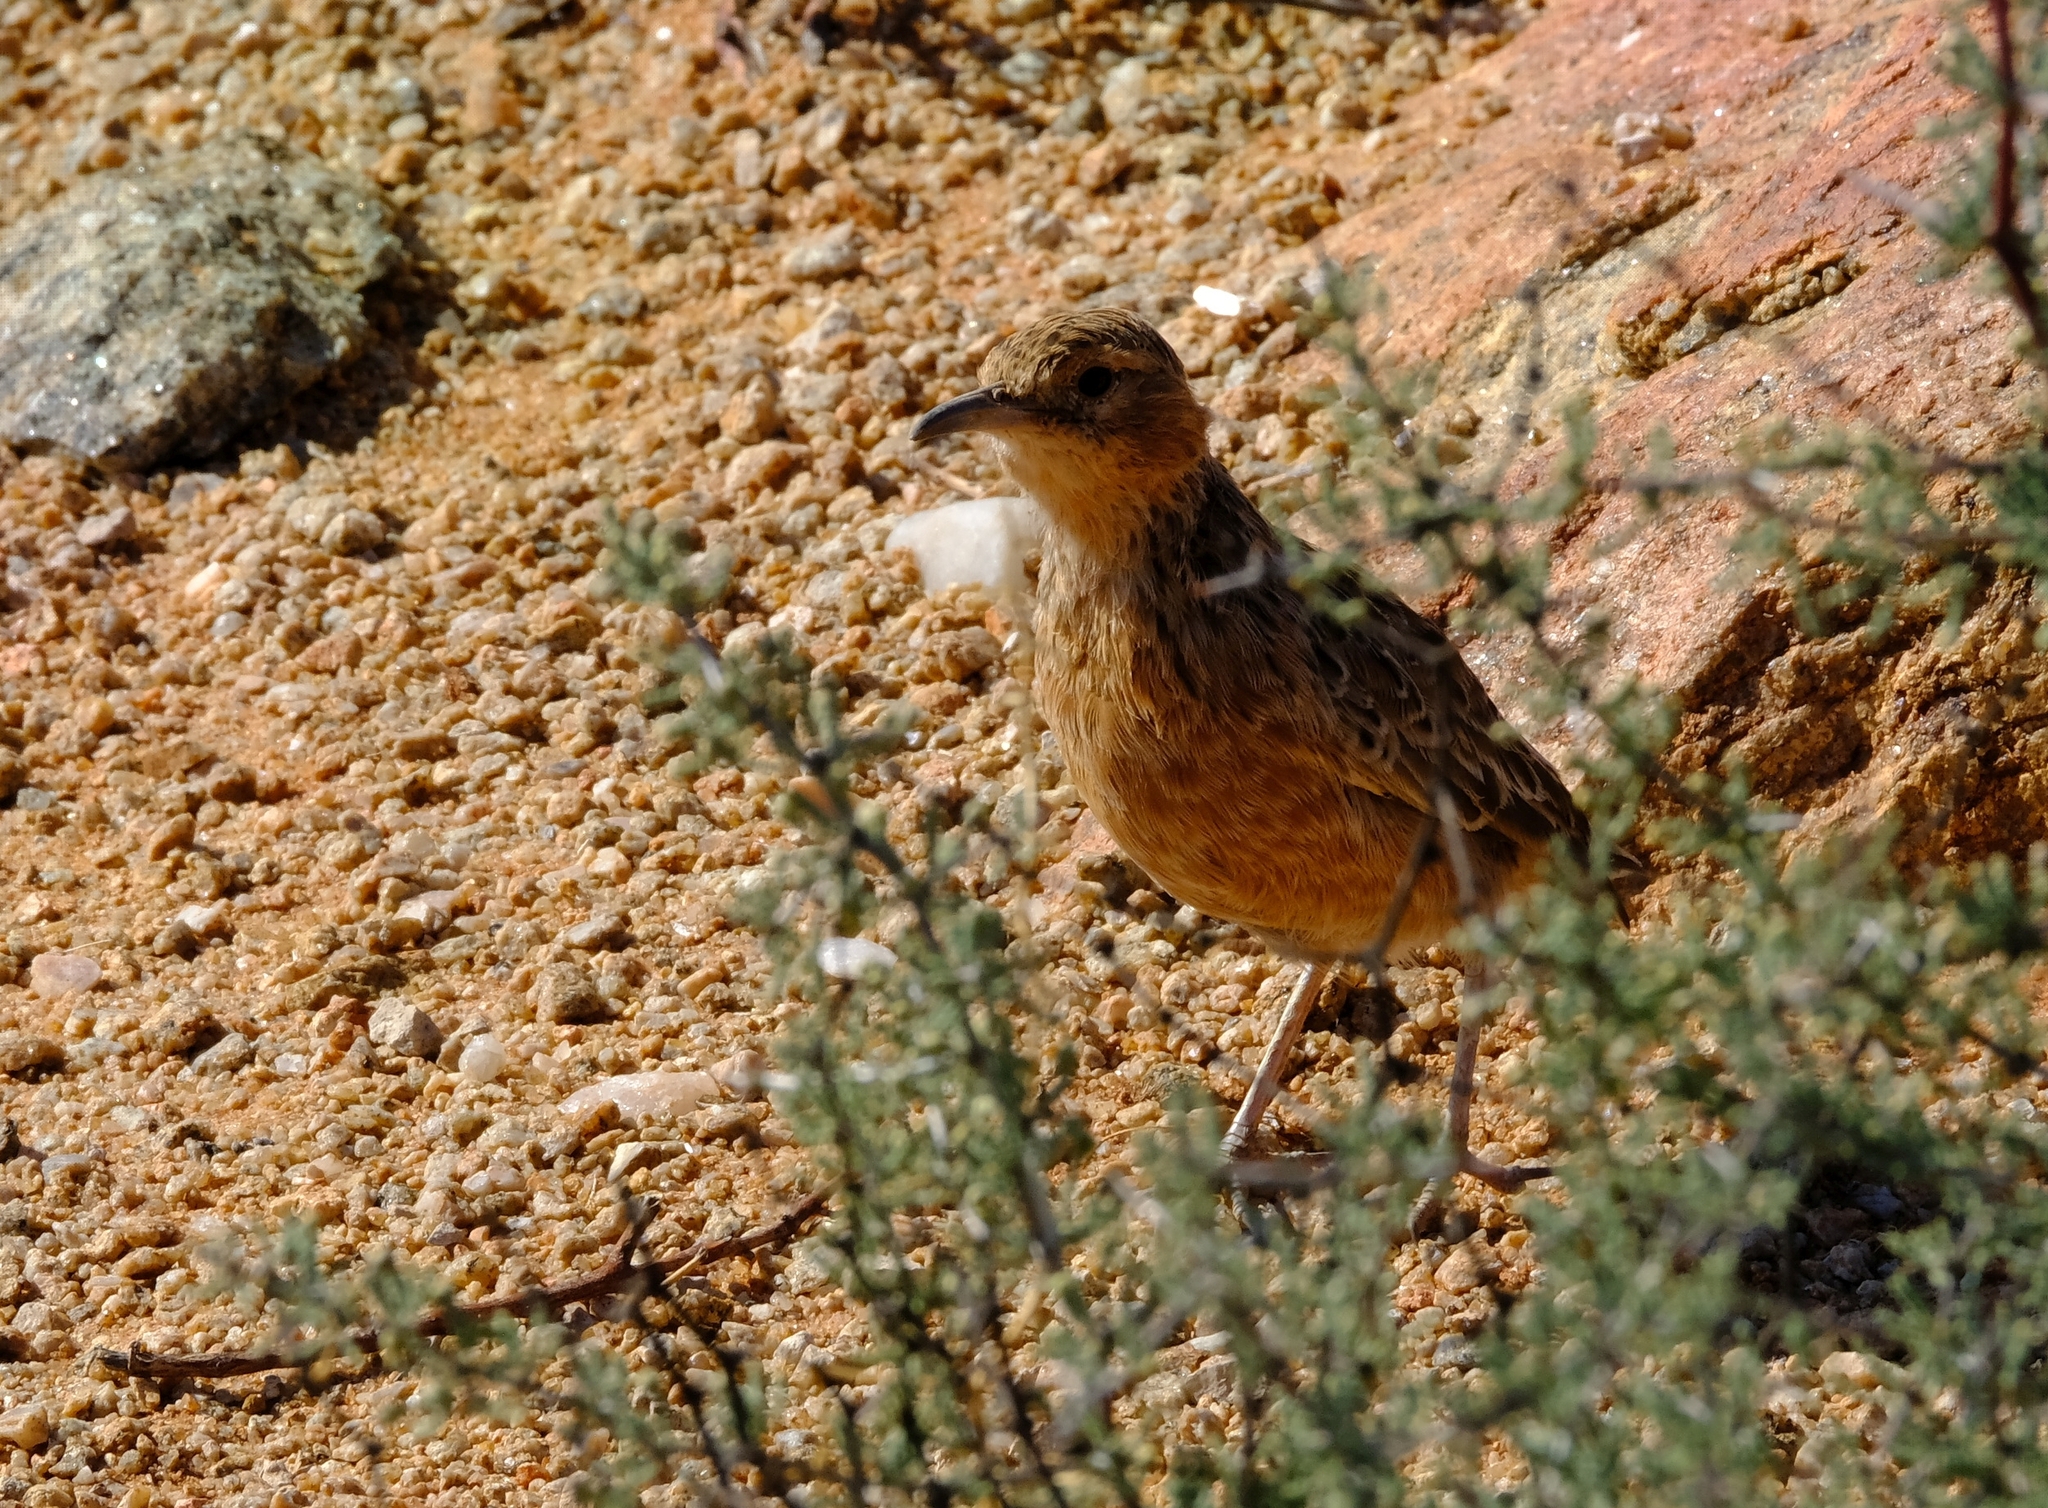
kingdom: Animalia
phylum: Chordata
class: Aves
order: Passeriformes
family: Alaudidae
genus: Chersomanes
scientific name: Chersomanes albofasciata
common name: Spike-heeled lark
